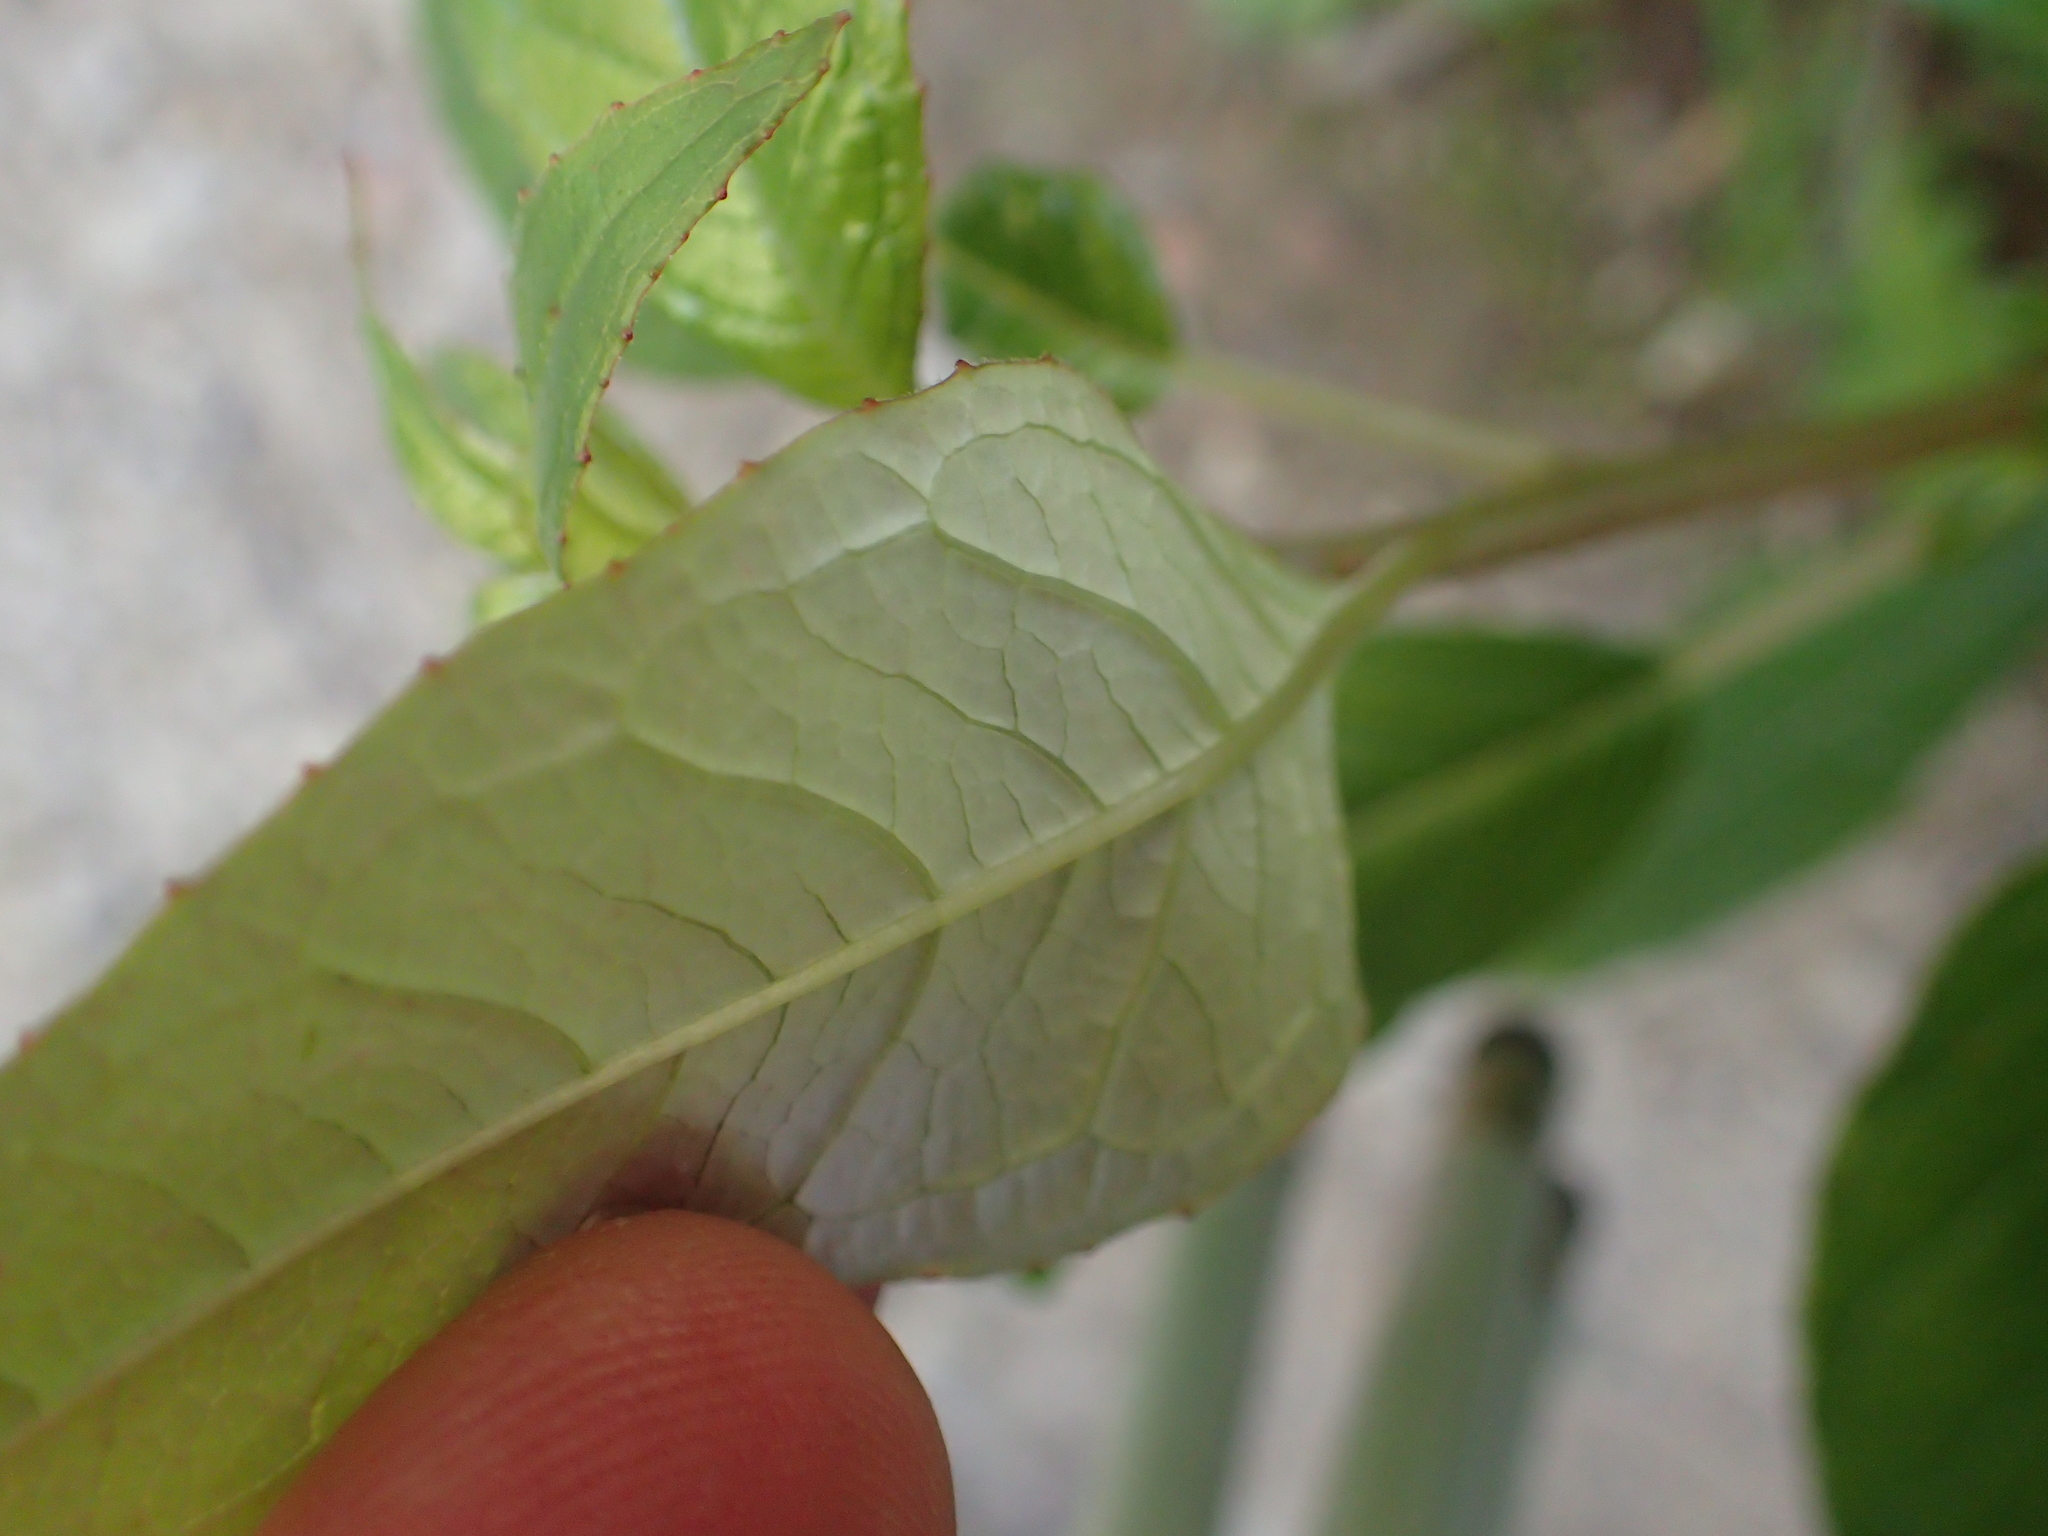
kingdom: Plantae
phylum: Tracheophyta
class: Magnoliopsida
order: Myrtales
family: Onagraceae
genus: Fuchsia
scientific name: Fuchsia excorticata
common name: Tree fuchsia
